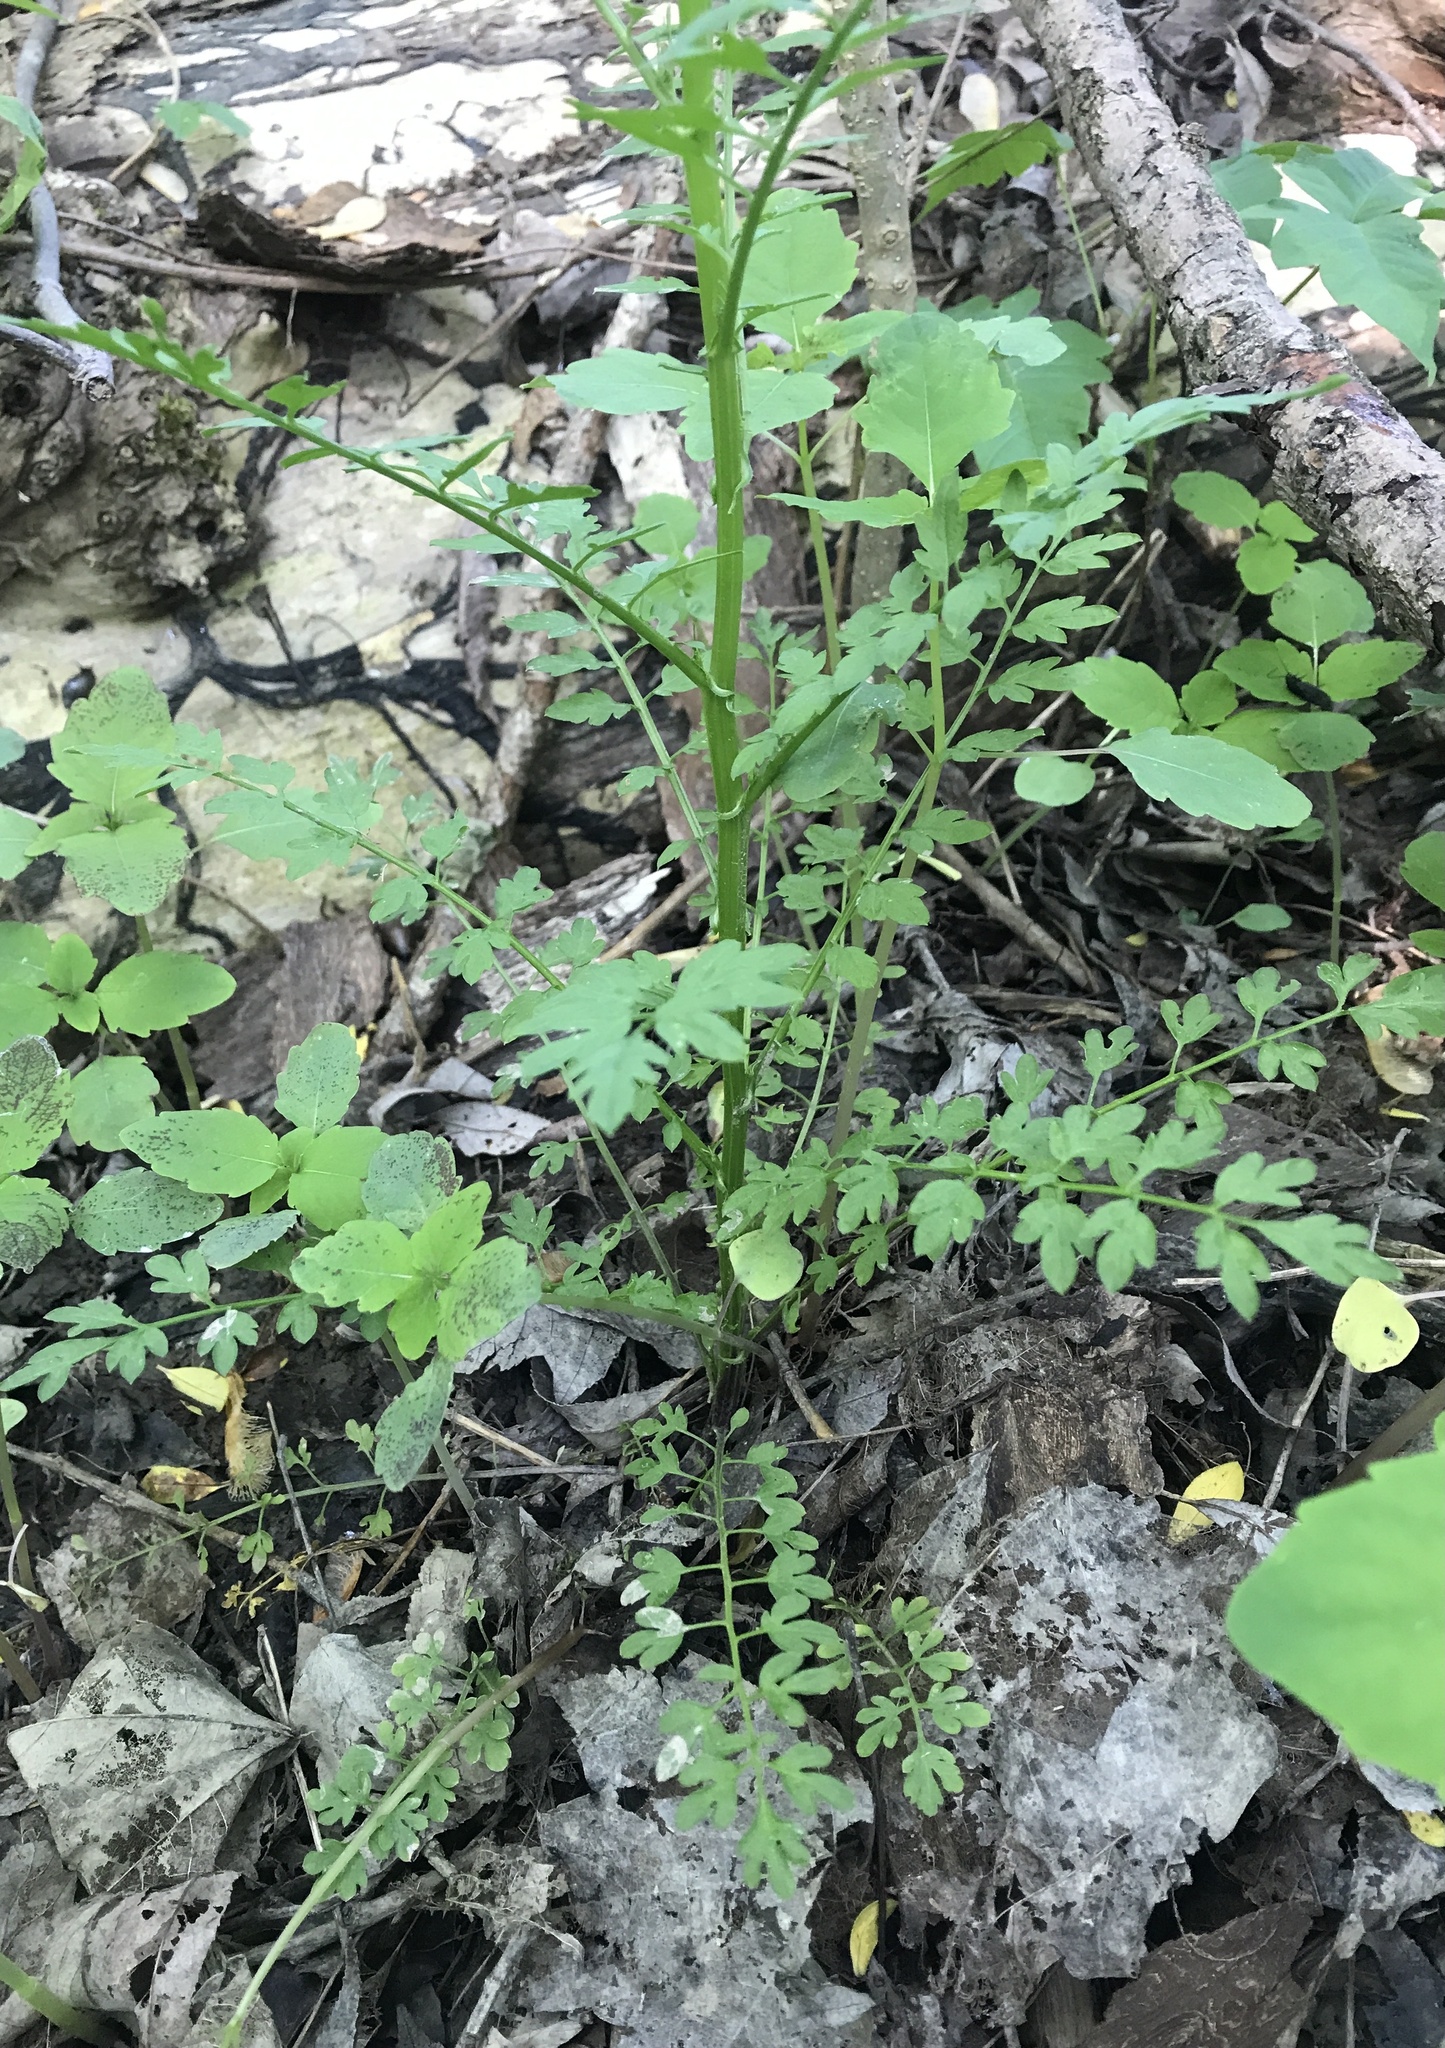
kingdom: Plantae
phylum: Tracheophyta
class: Magnoliopsida
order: Brassicales
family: Brassicaceae
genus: Cardamine
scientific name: Cardamine impatiens
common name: Narrow-leaved bitter-cress
